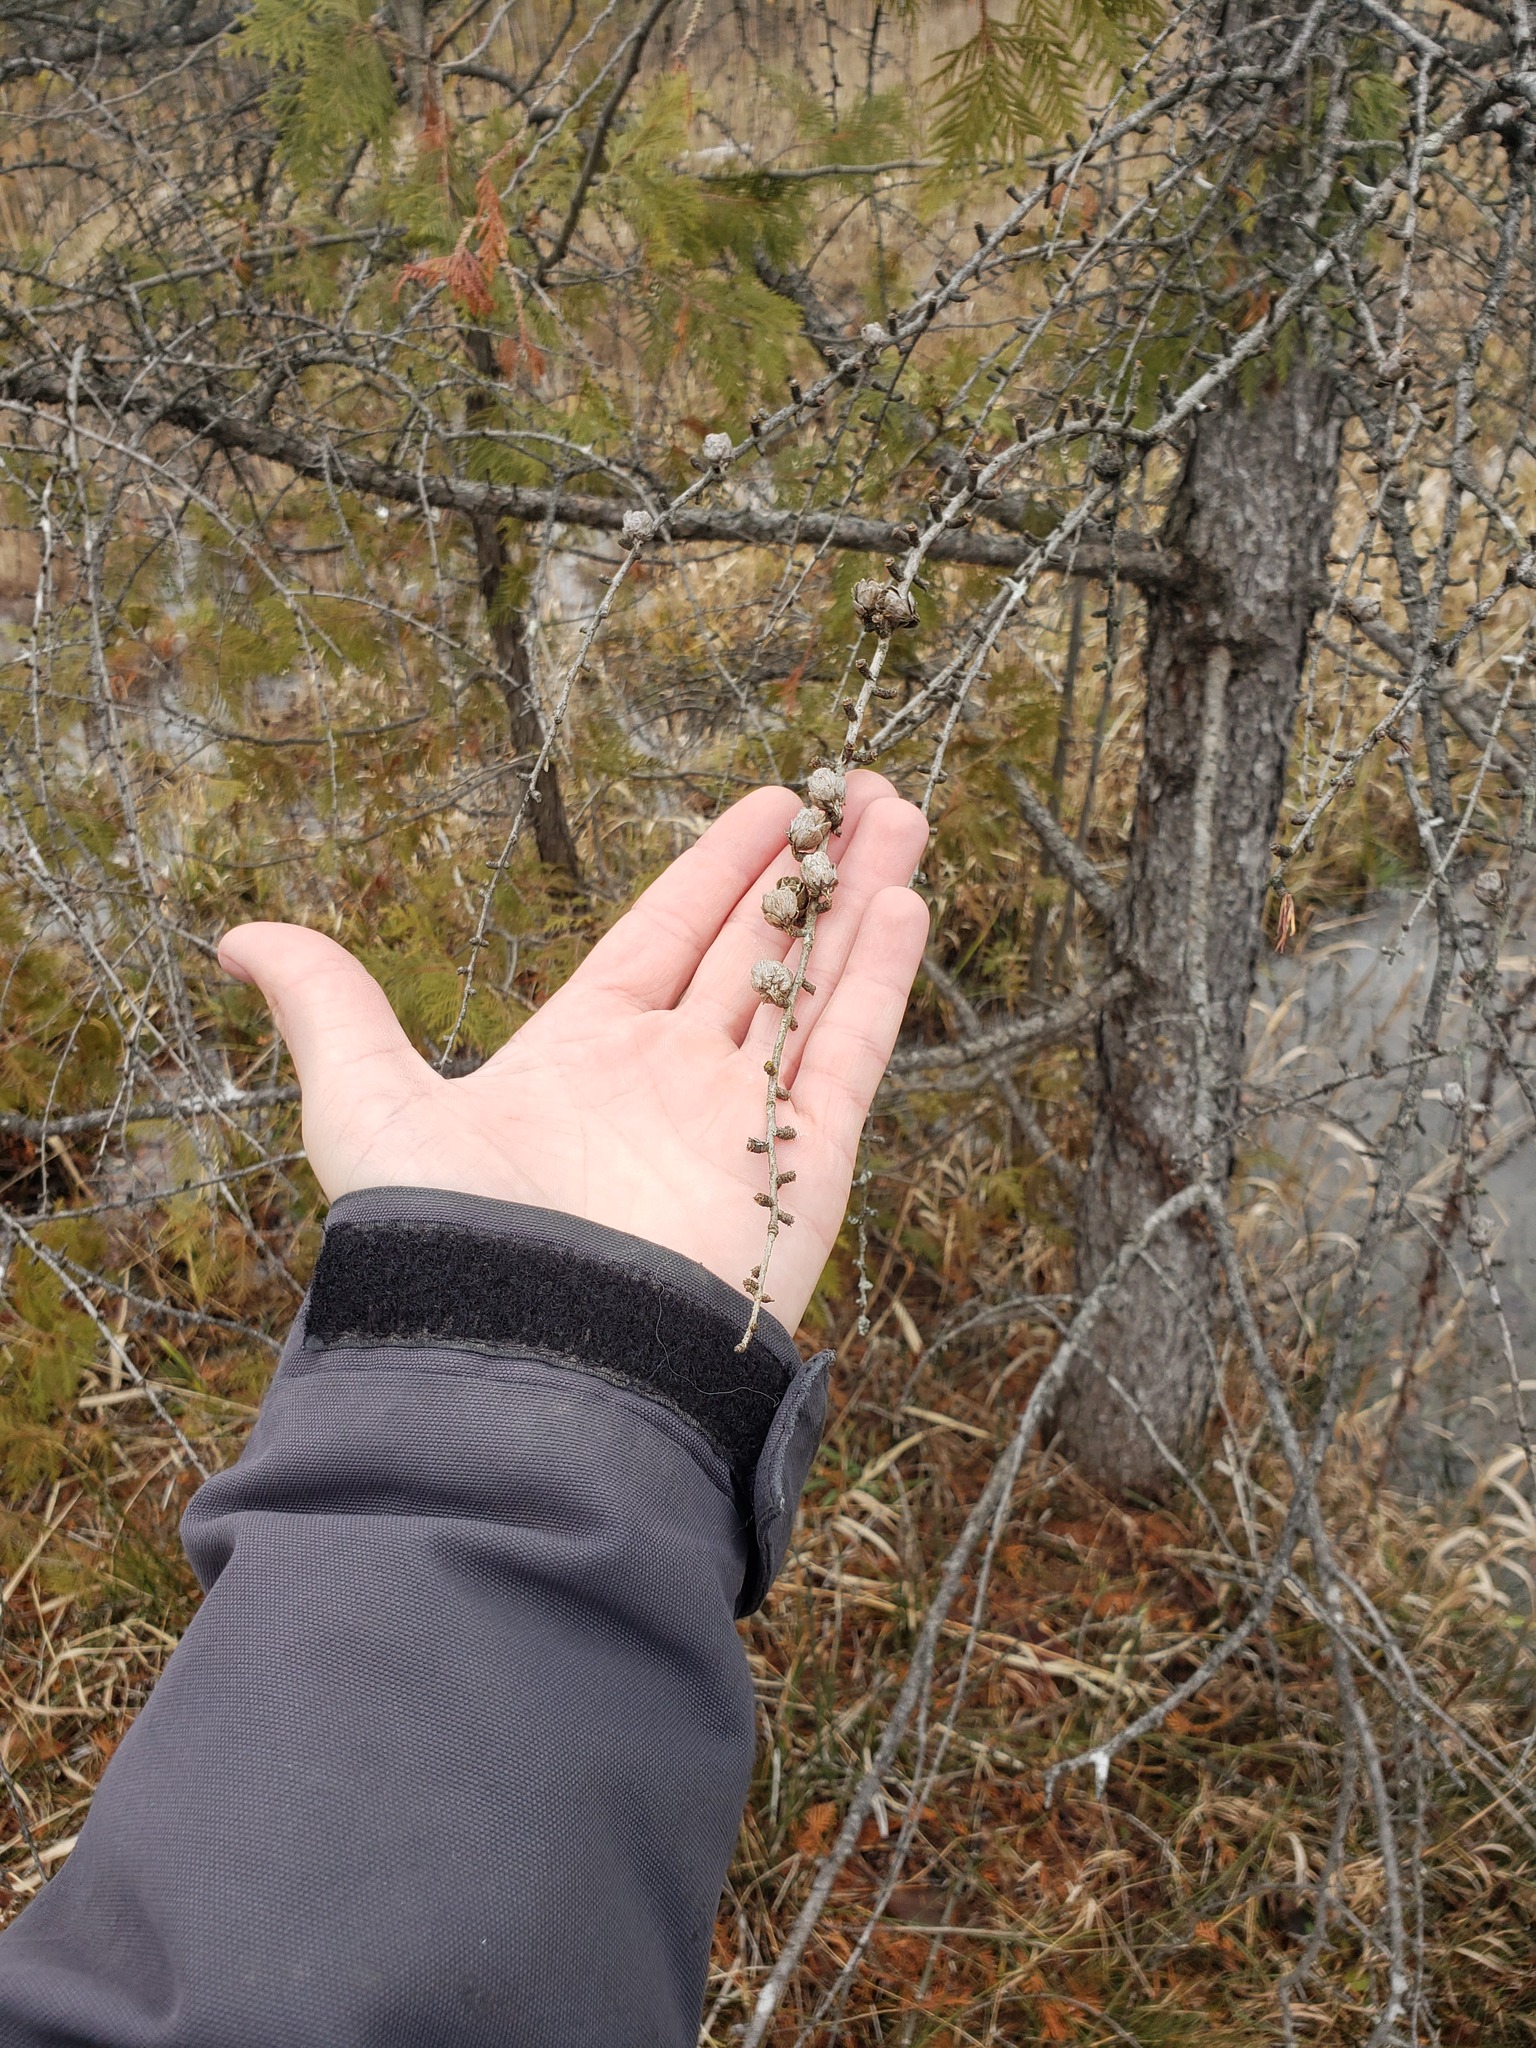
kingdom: Plantae
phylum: Tracheophyta
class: Pinopsida
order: Pinales
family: Pinaceae
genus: Larix
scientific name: Larix laricina
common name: American larch
